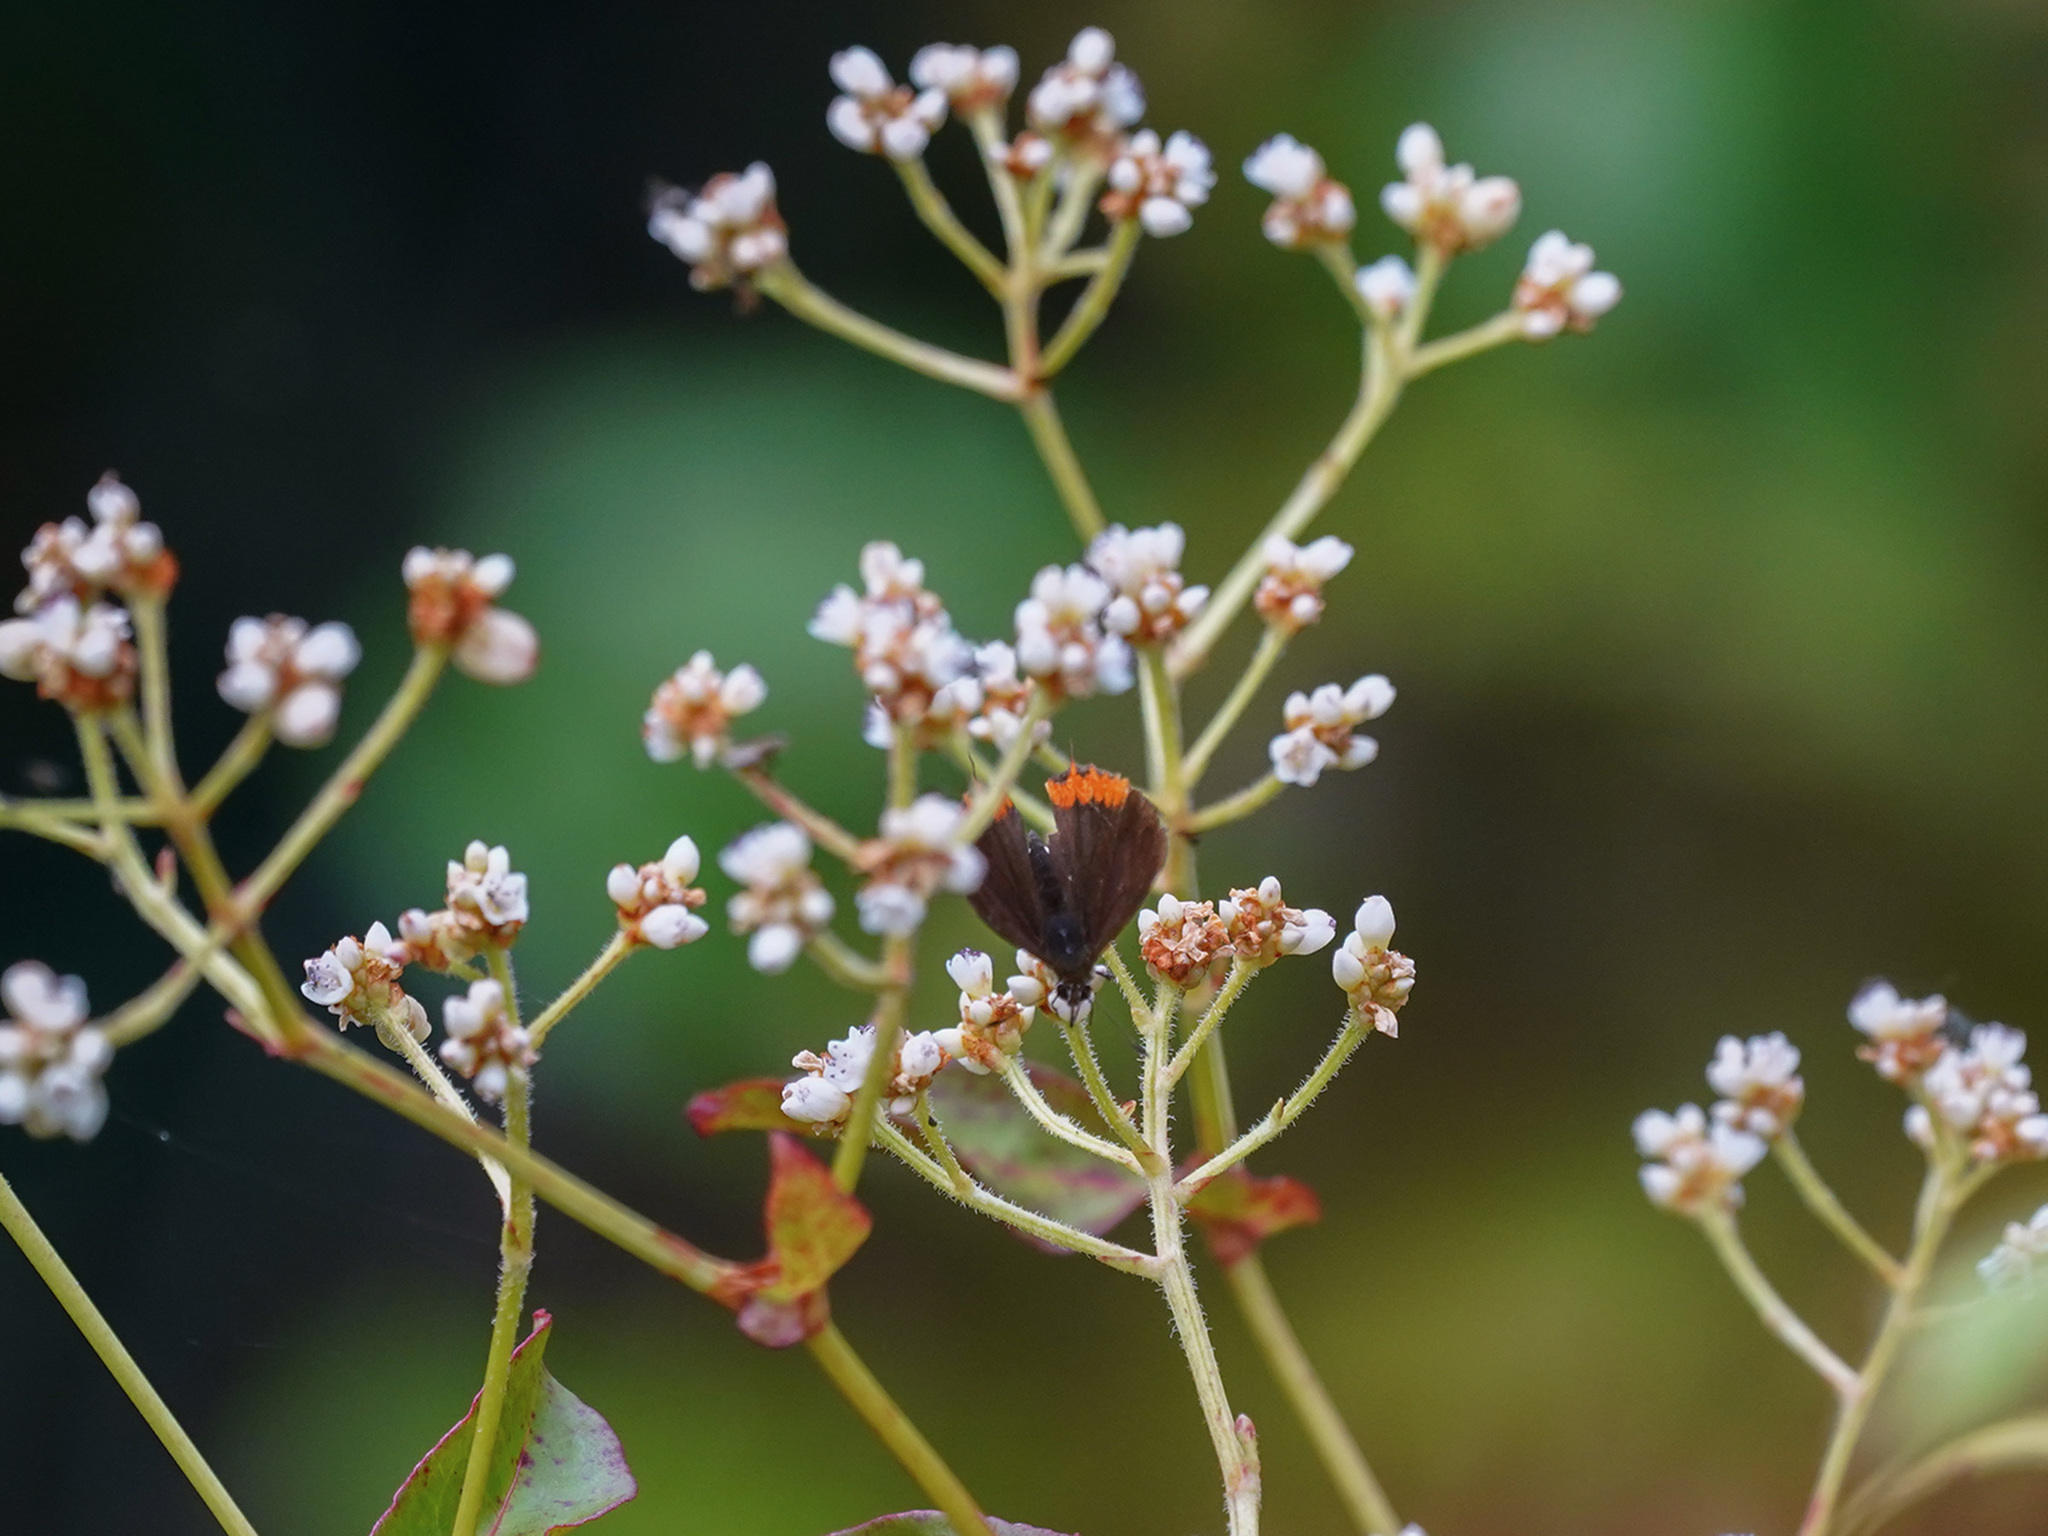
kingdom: Animalia
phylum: Arthropoda
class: Insecta
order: Lepidoptera
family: Lycaenidae
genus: Heliophorus
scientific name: Heliophorus ila
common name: Restricted purple sapphire
